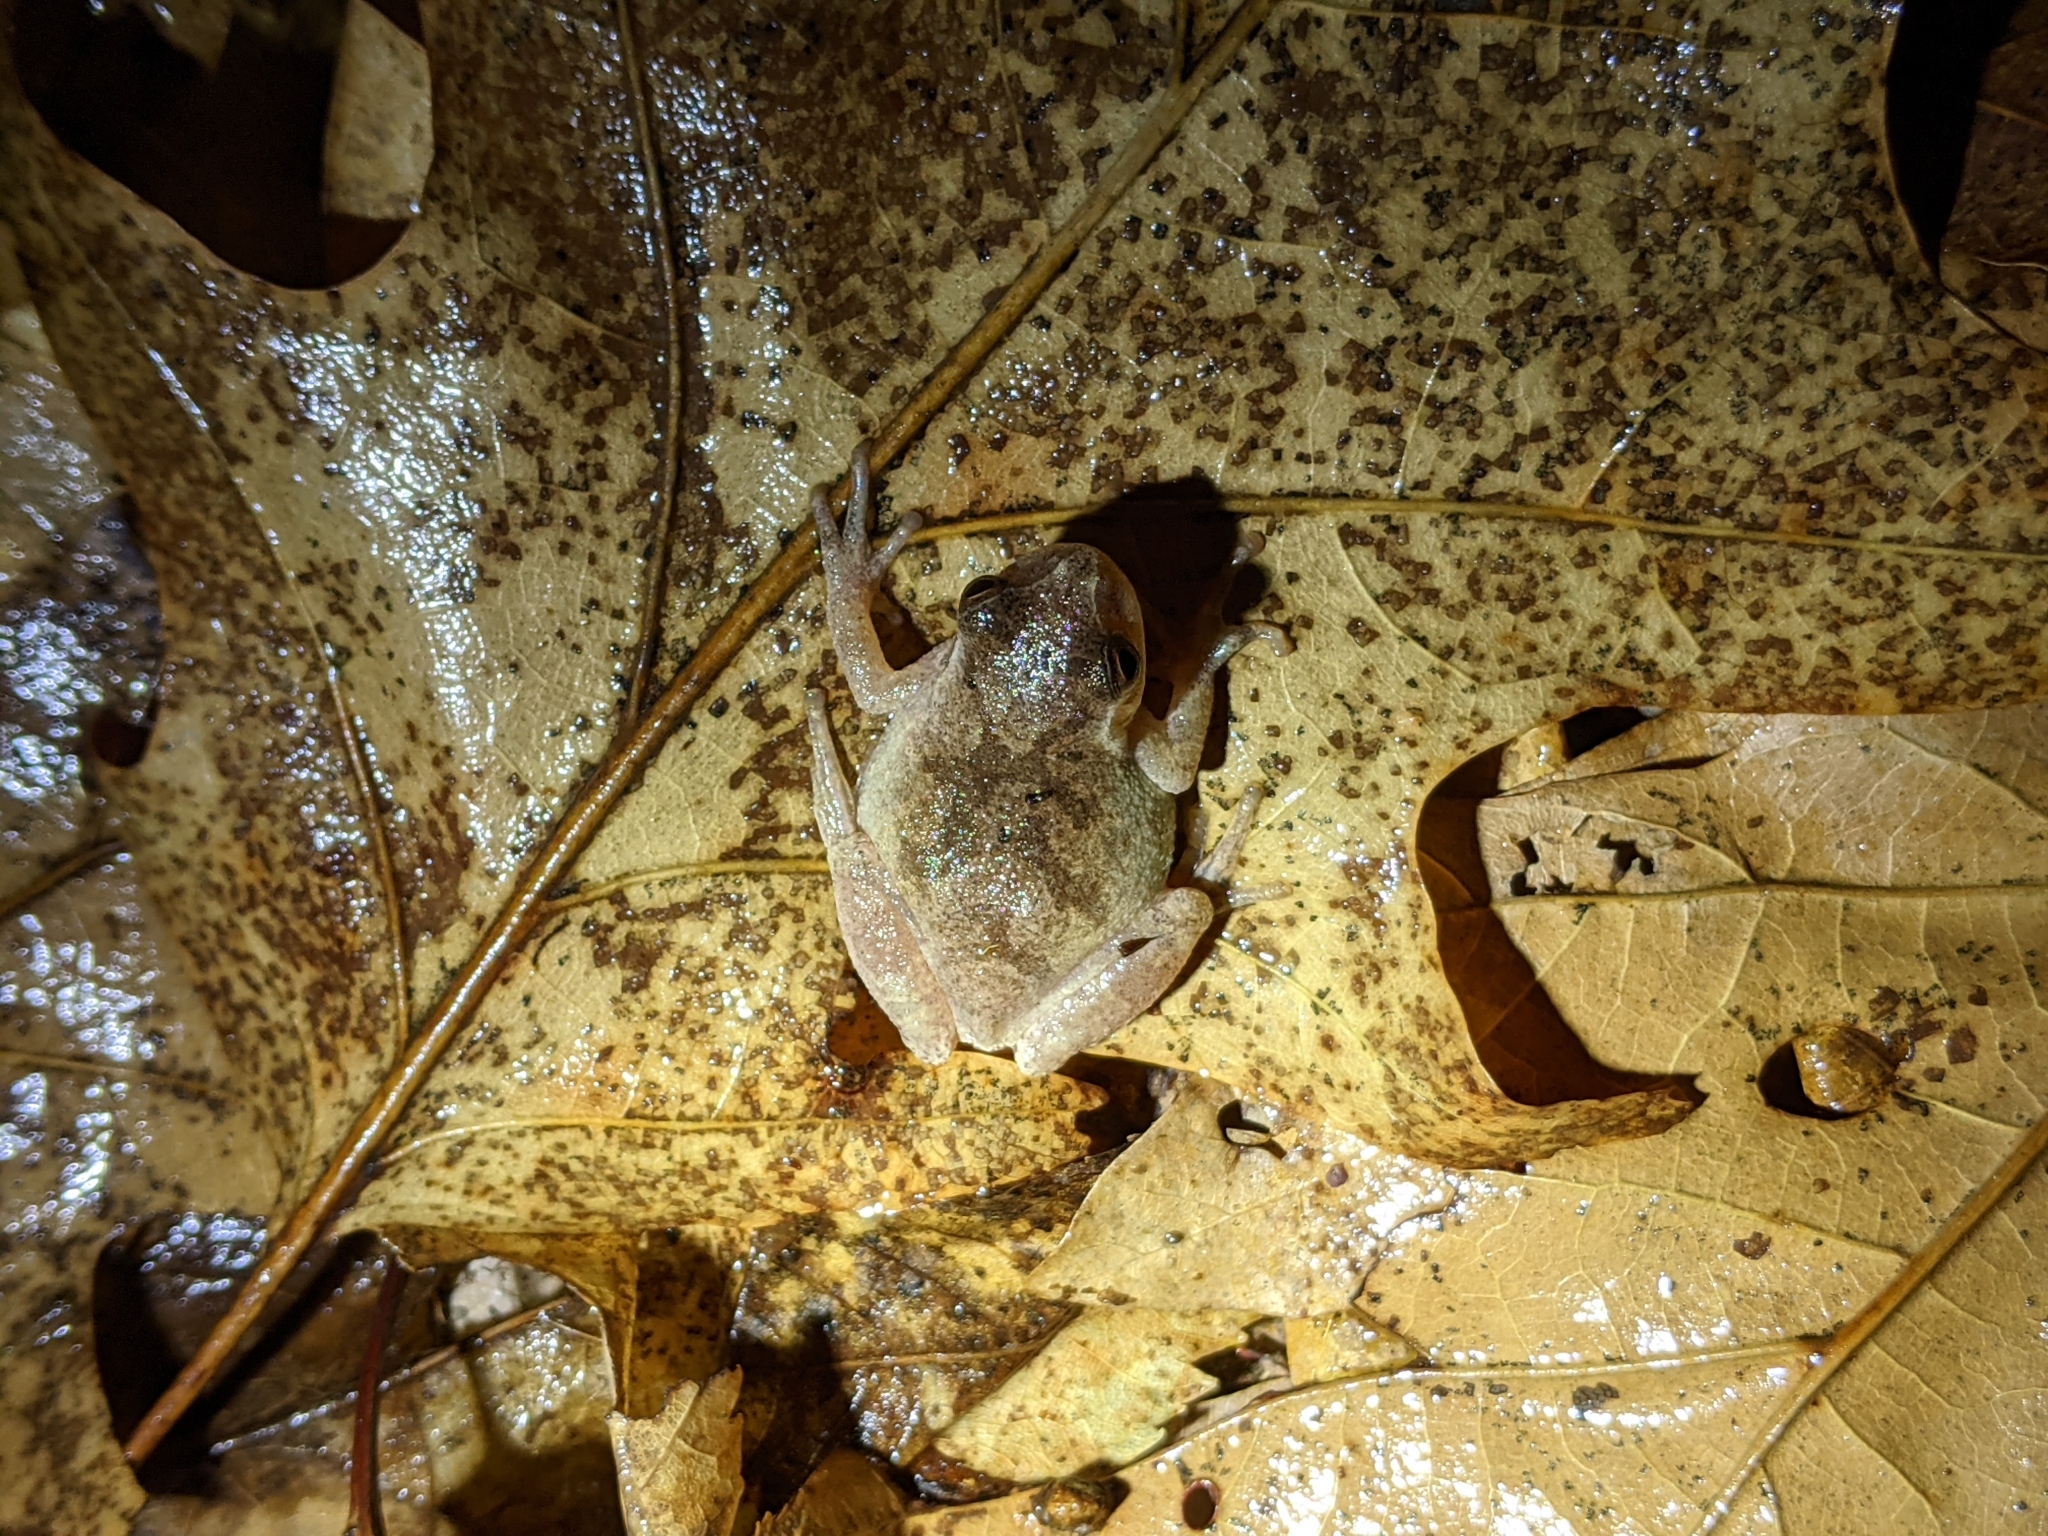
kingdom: Animalia
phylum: Chordata
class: Amphibia
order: Anura
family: Hylidae
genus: Pseudacris
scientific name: Pseudacris crucifer
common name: Spring peeper
